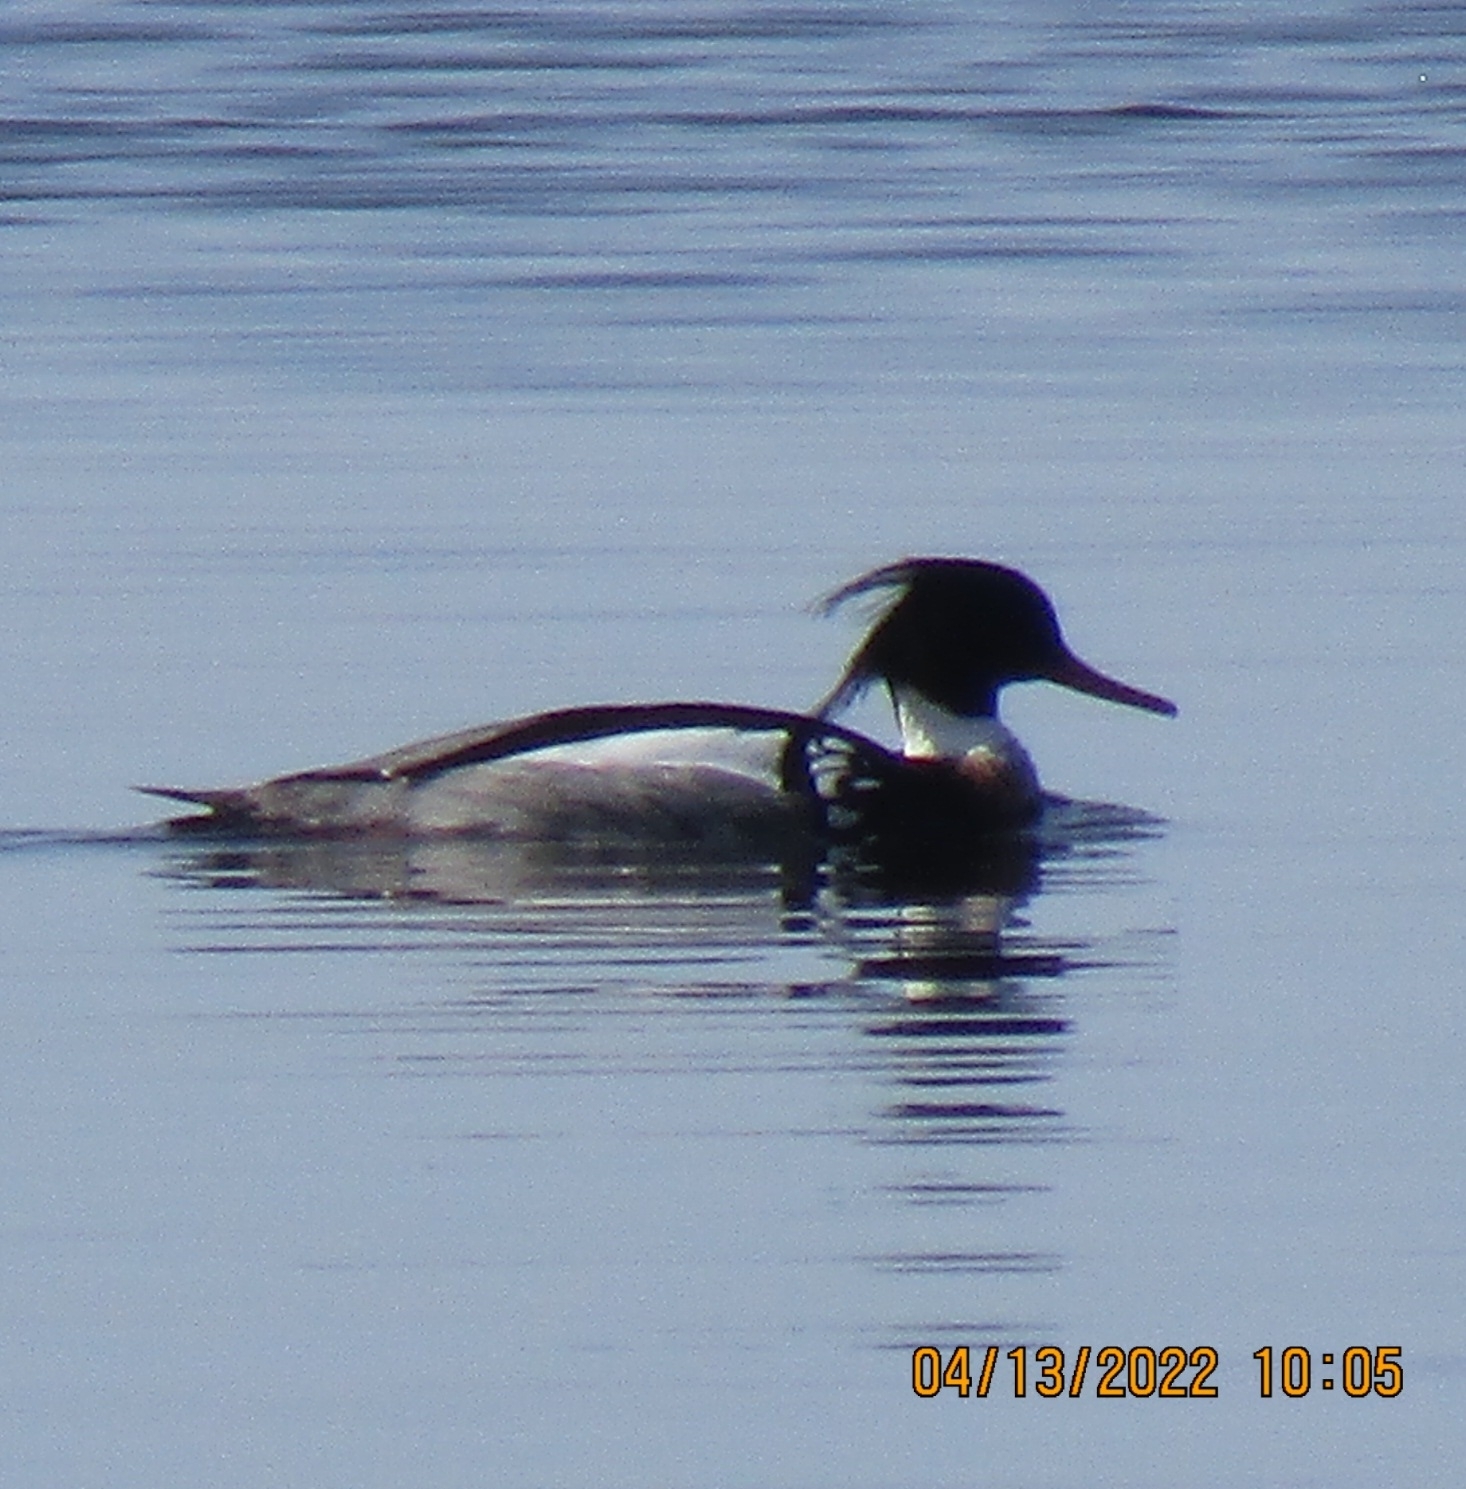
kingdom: Animalia
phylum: Chordata
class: Aves
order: Anseriformes
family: Anatidae
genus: Mergus
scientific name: Mergus serrator
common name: Red-breasted merganser
